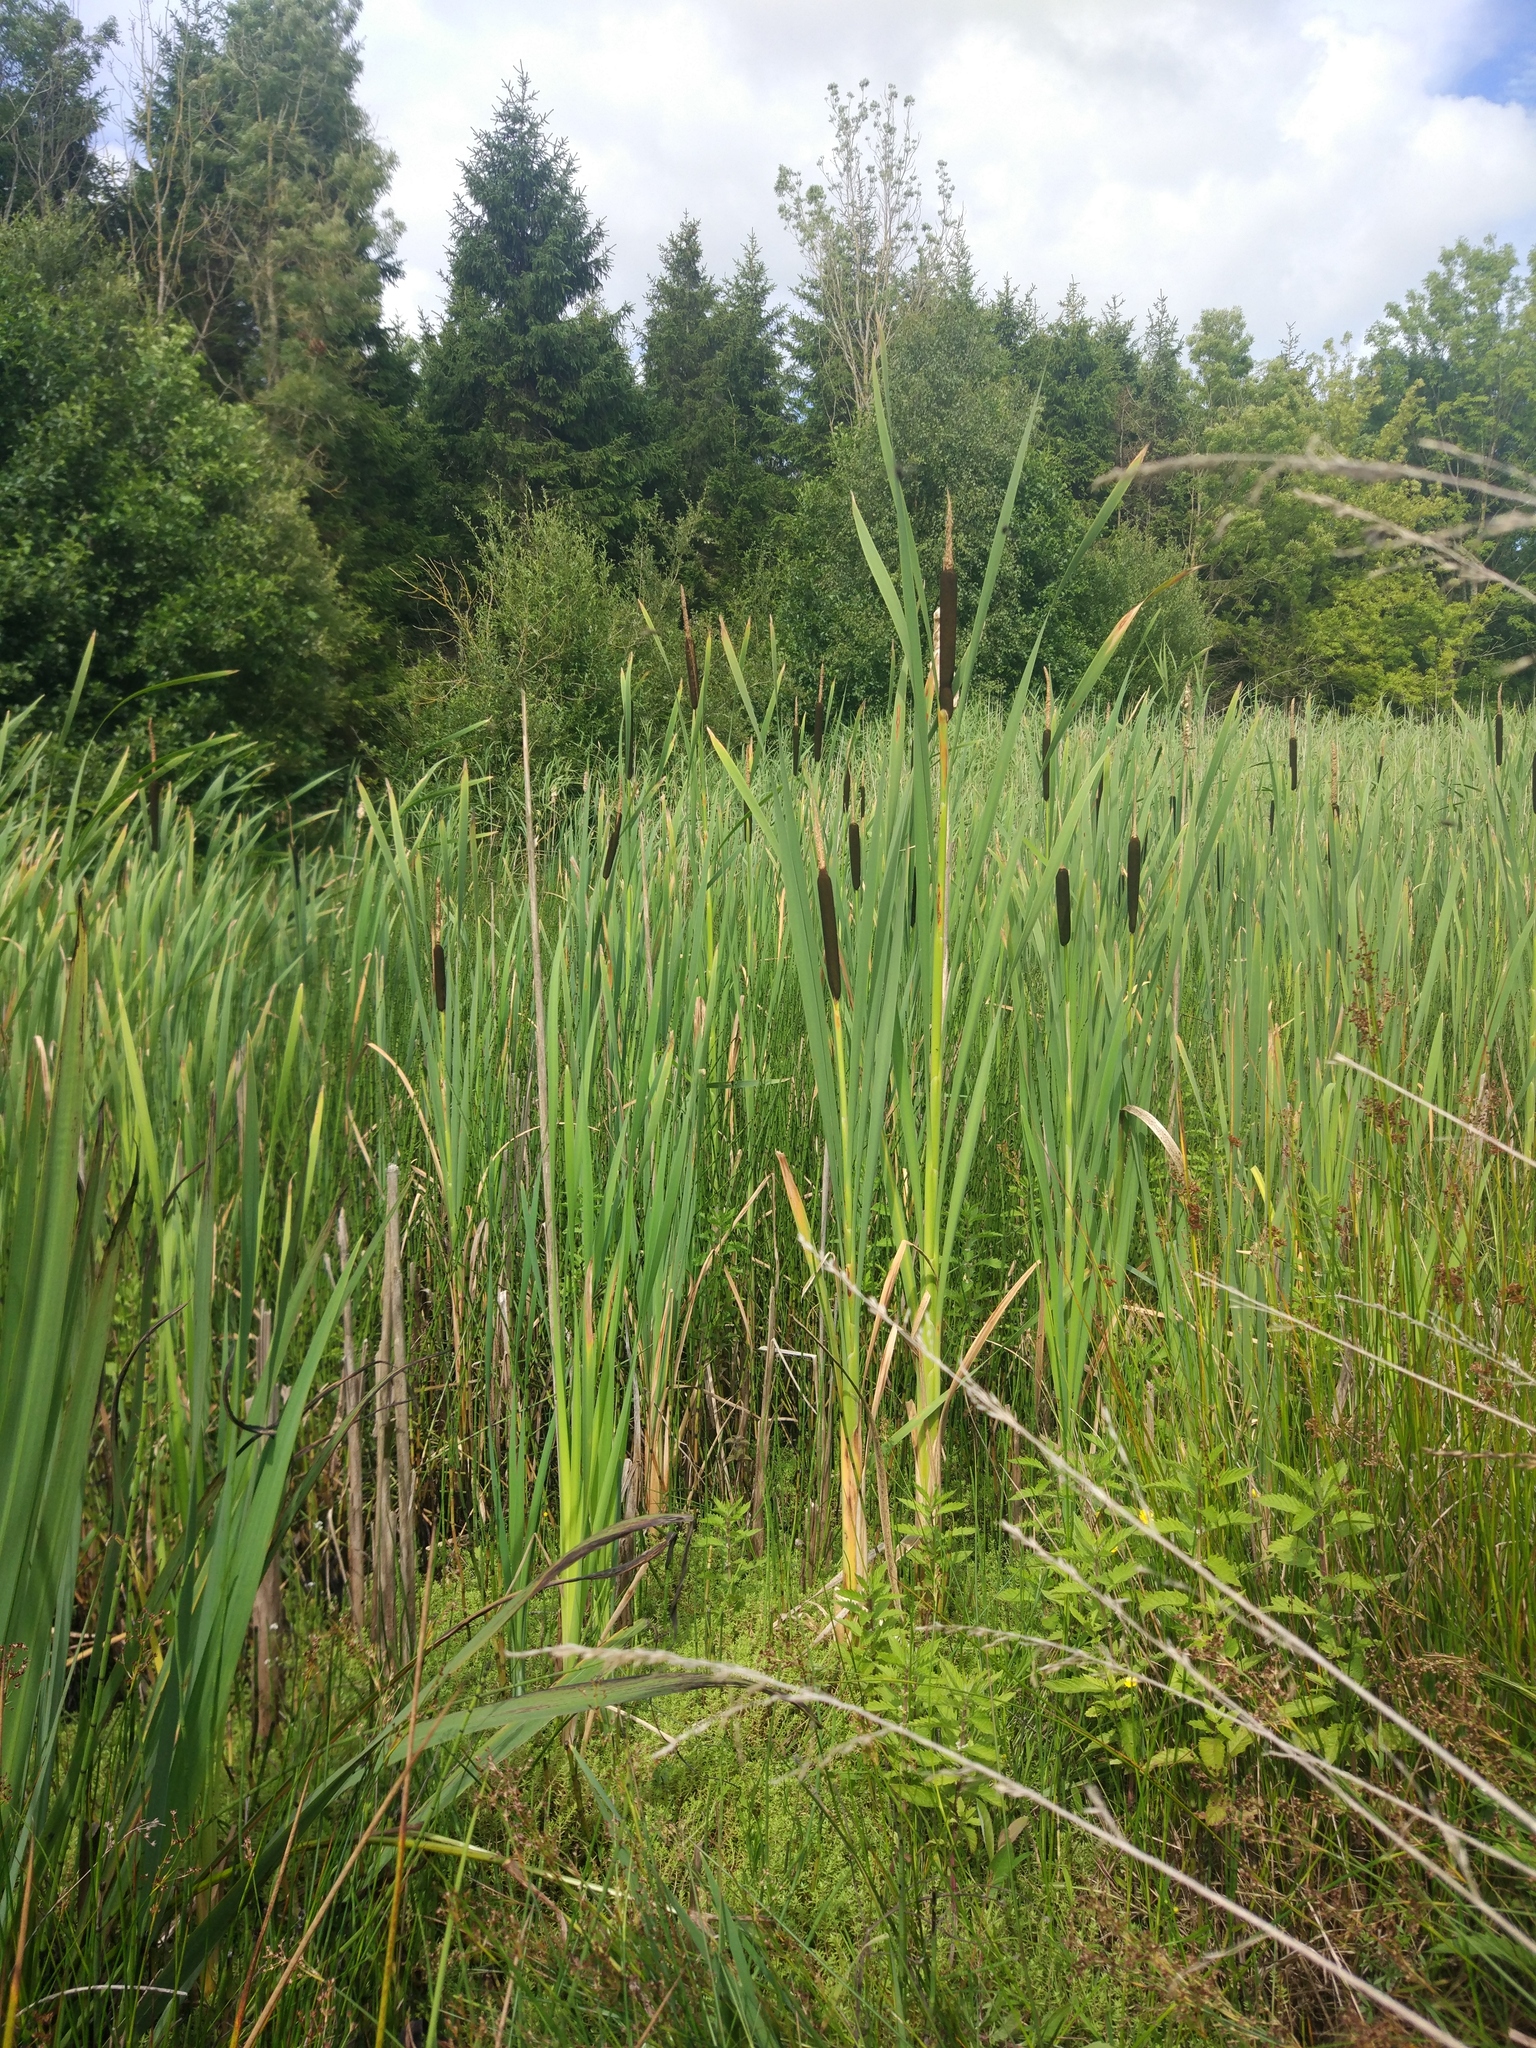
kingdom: Plantae
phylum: Tracheophyta
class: Liliopsida
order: Poales
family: Typhaceae
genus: Typha
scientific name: Typha latifolia
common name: Broadleaf cattail
